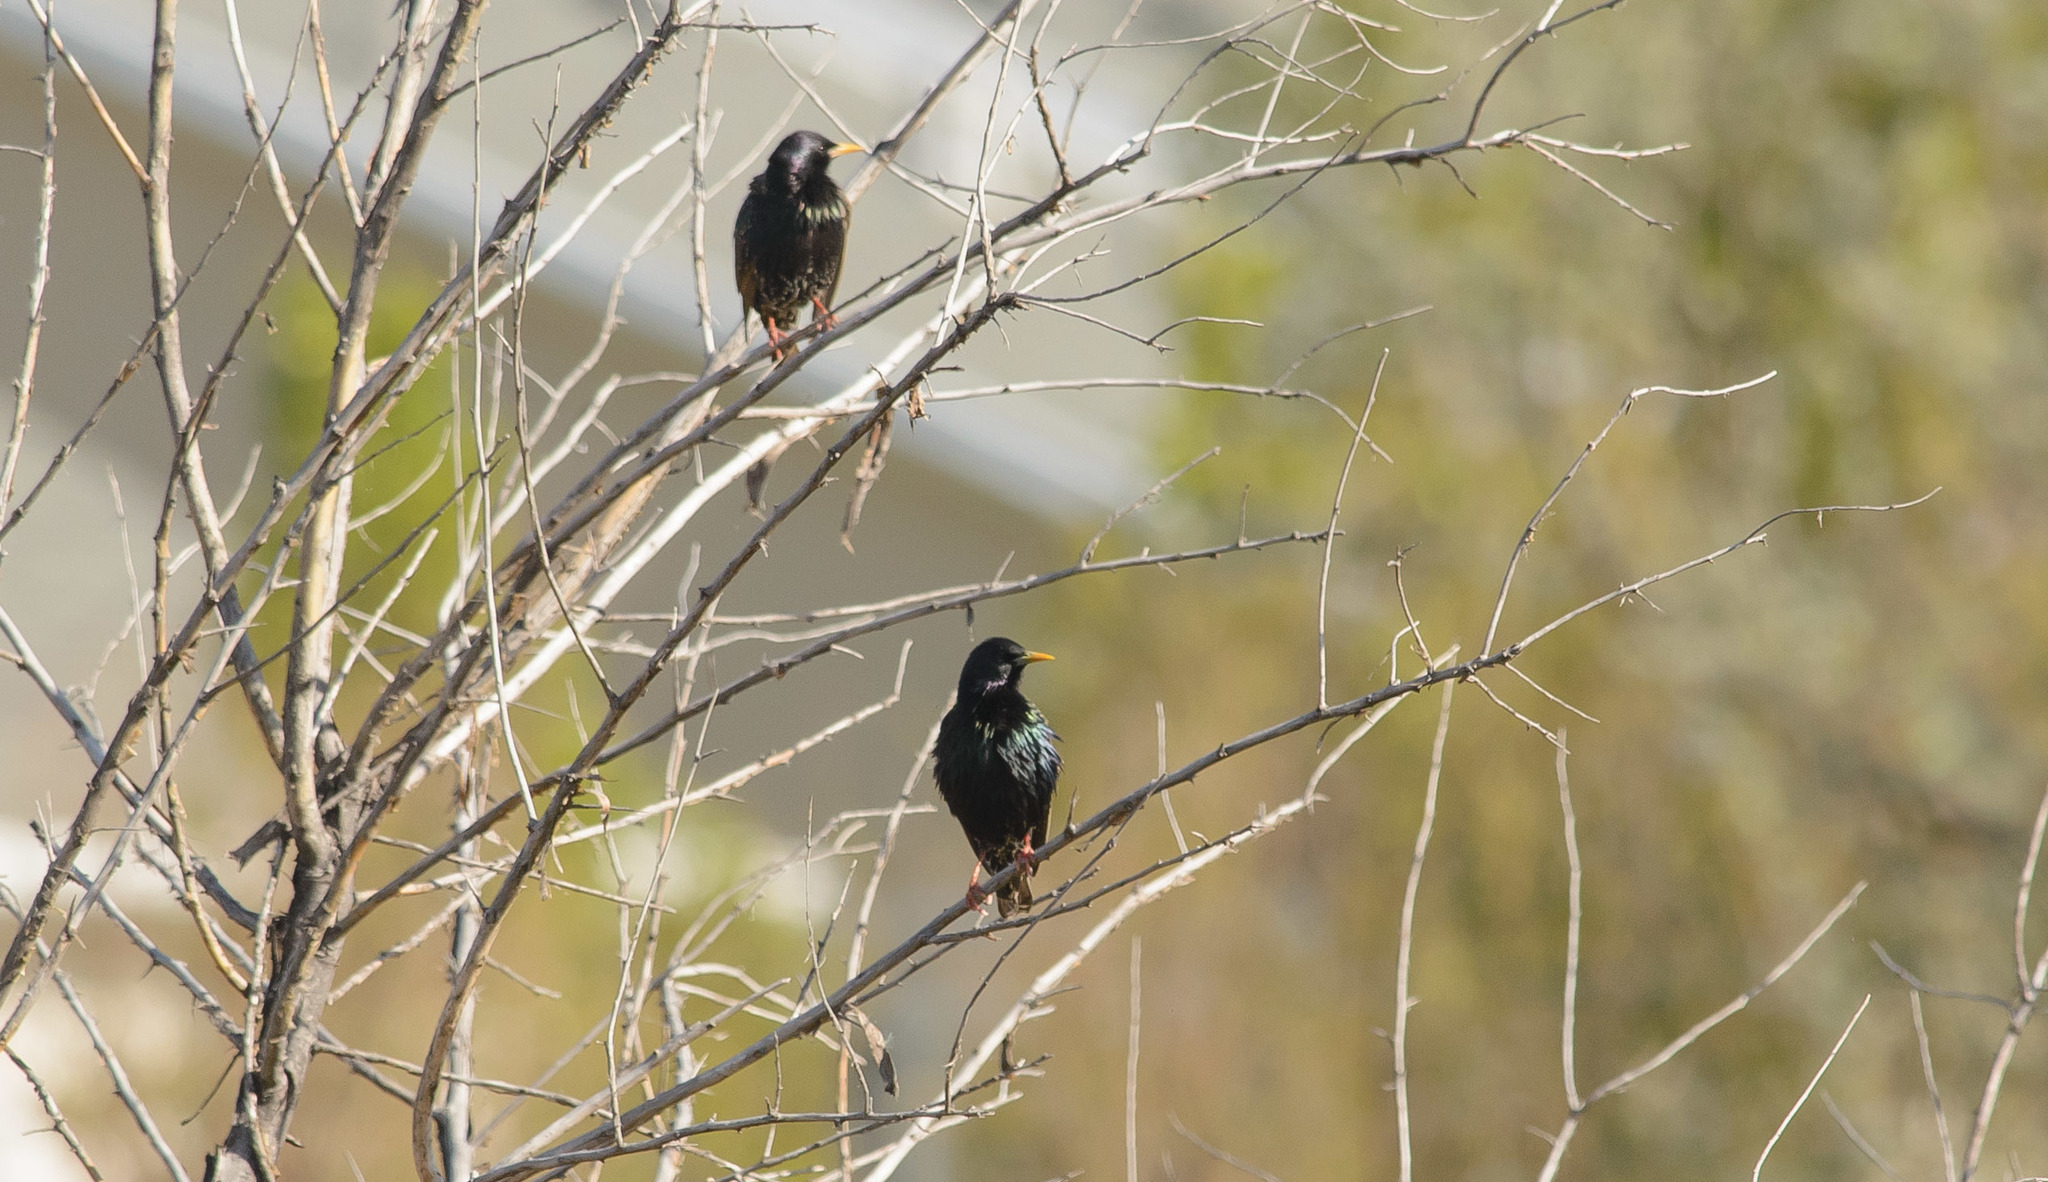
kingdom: Animalia
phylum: Chordata
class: Aves
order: Passeriformes
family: Sturnidae
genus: Sturnus
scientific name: Sturnus vulgaris
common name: Common starling
